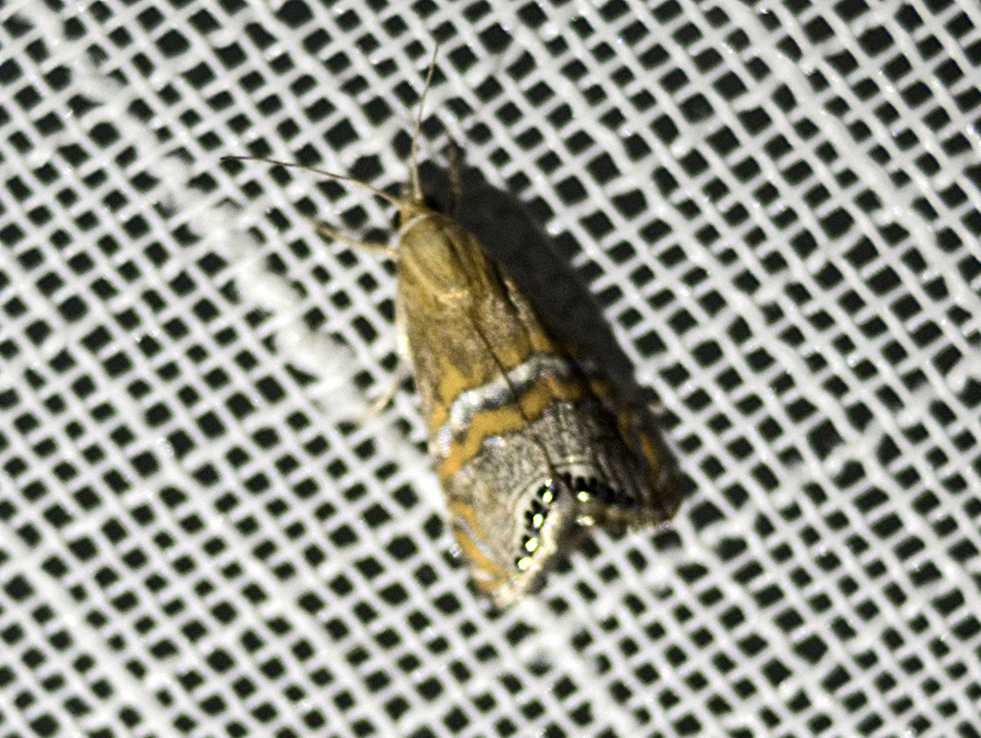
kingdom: Animalia
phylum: Arthropoda
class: Insecta
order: Lepidoptera
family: Crambidae
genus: Euchromius
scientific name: Euchromius bella
